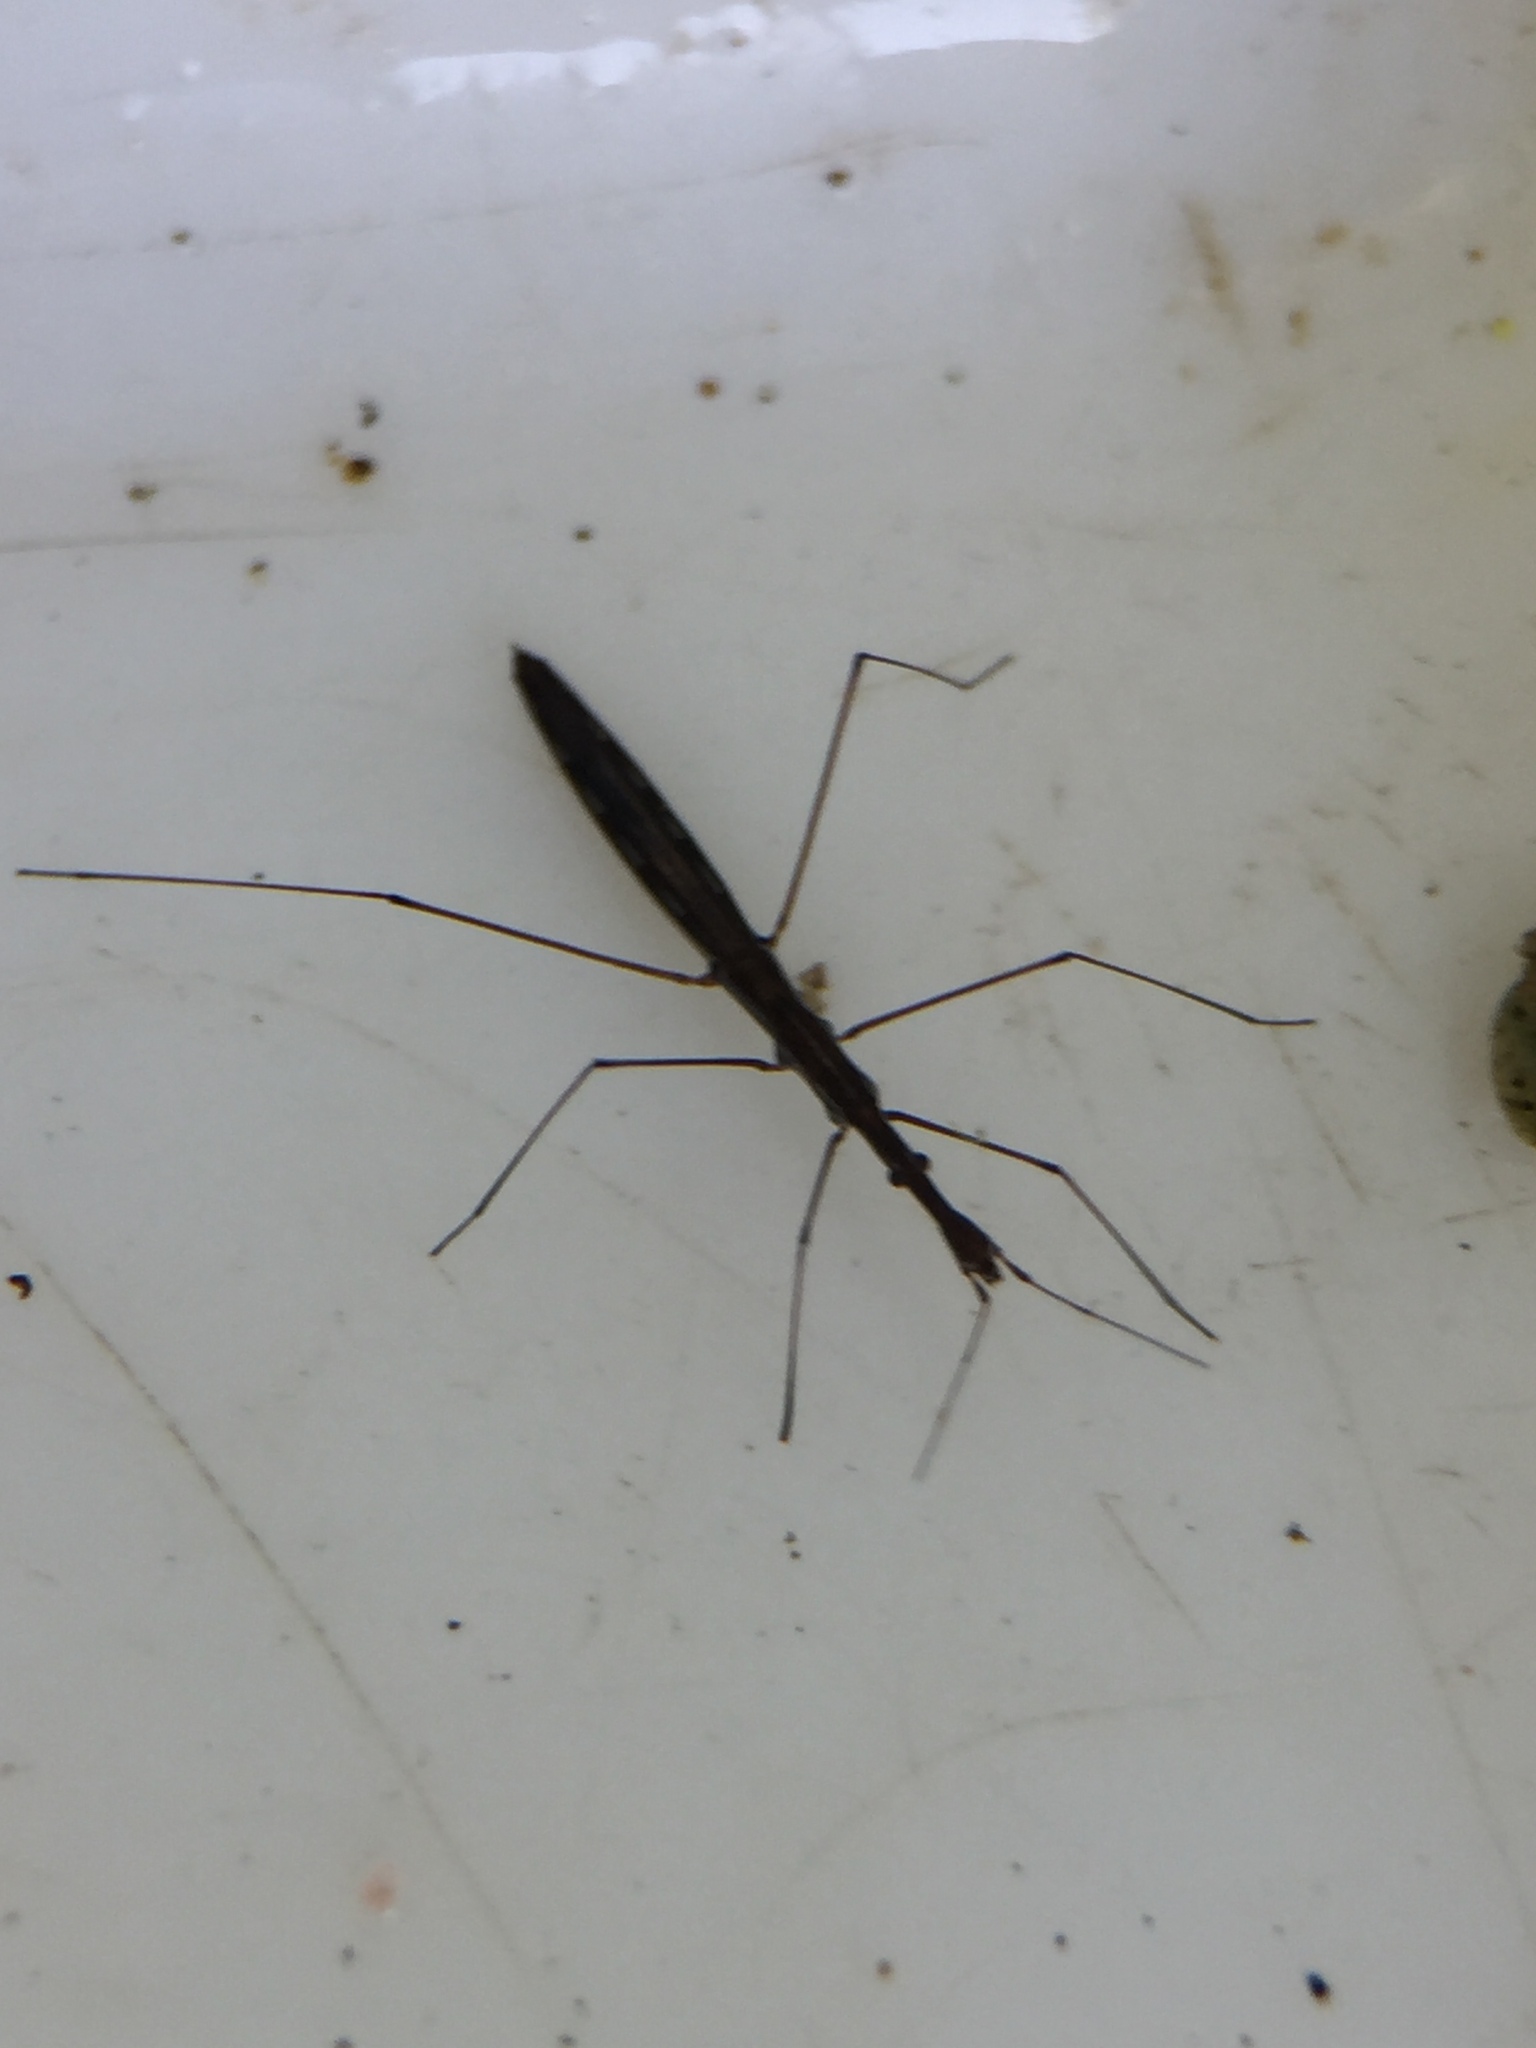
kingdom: Animalia
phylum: Arthropoda
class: Insecta
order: Hemiptera
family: Hydrometridae
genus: Hydrometra
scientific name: Hydrometra strigosa
